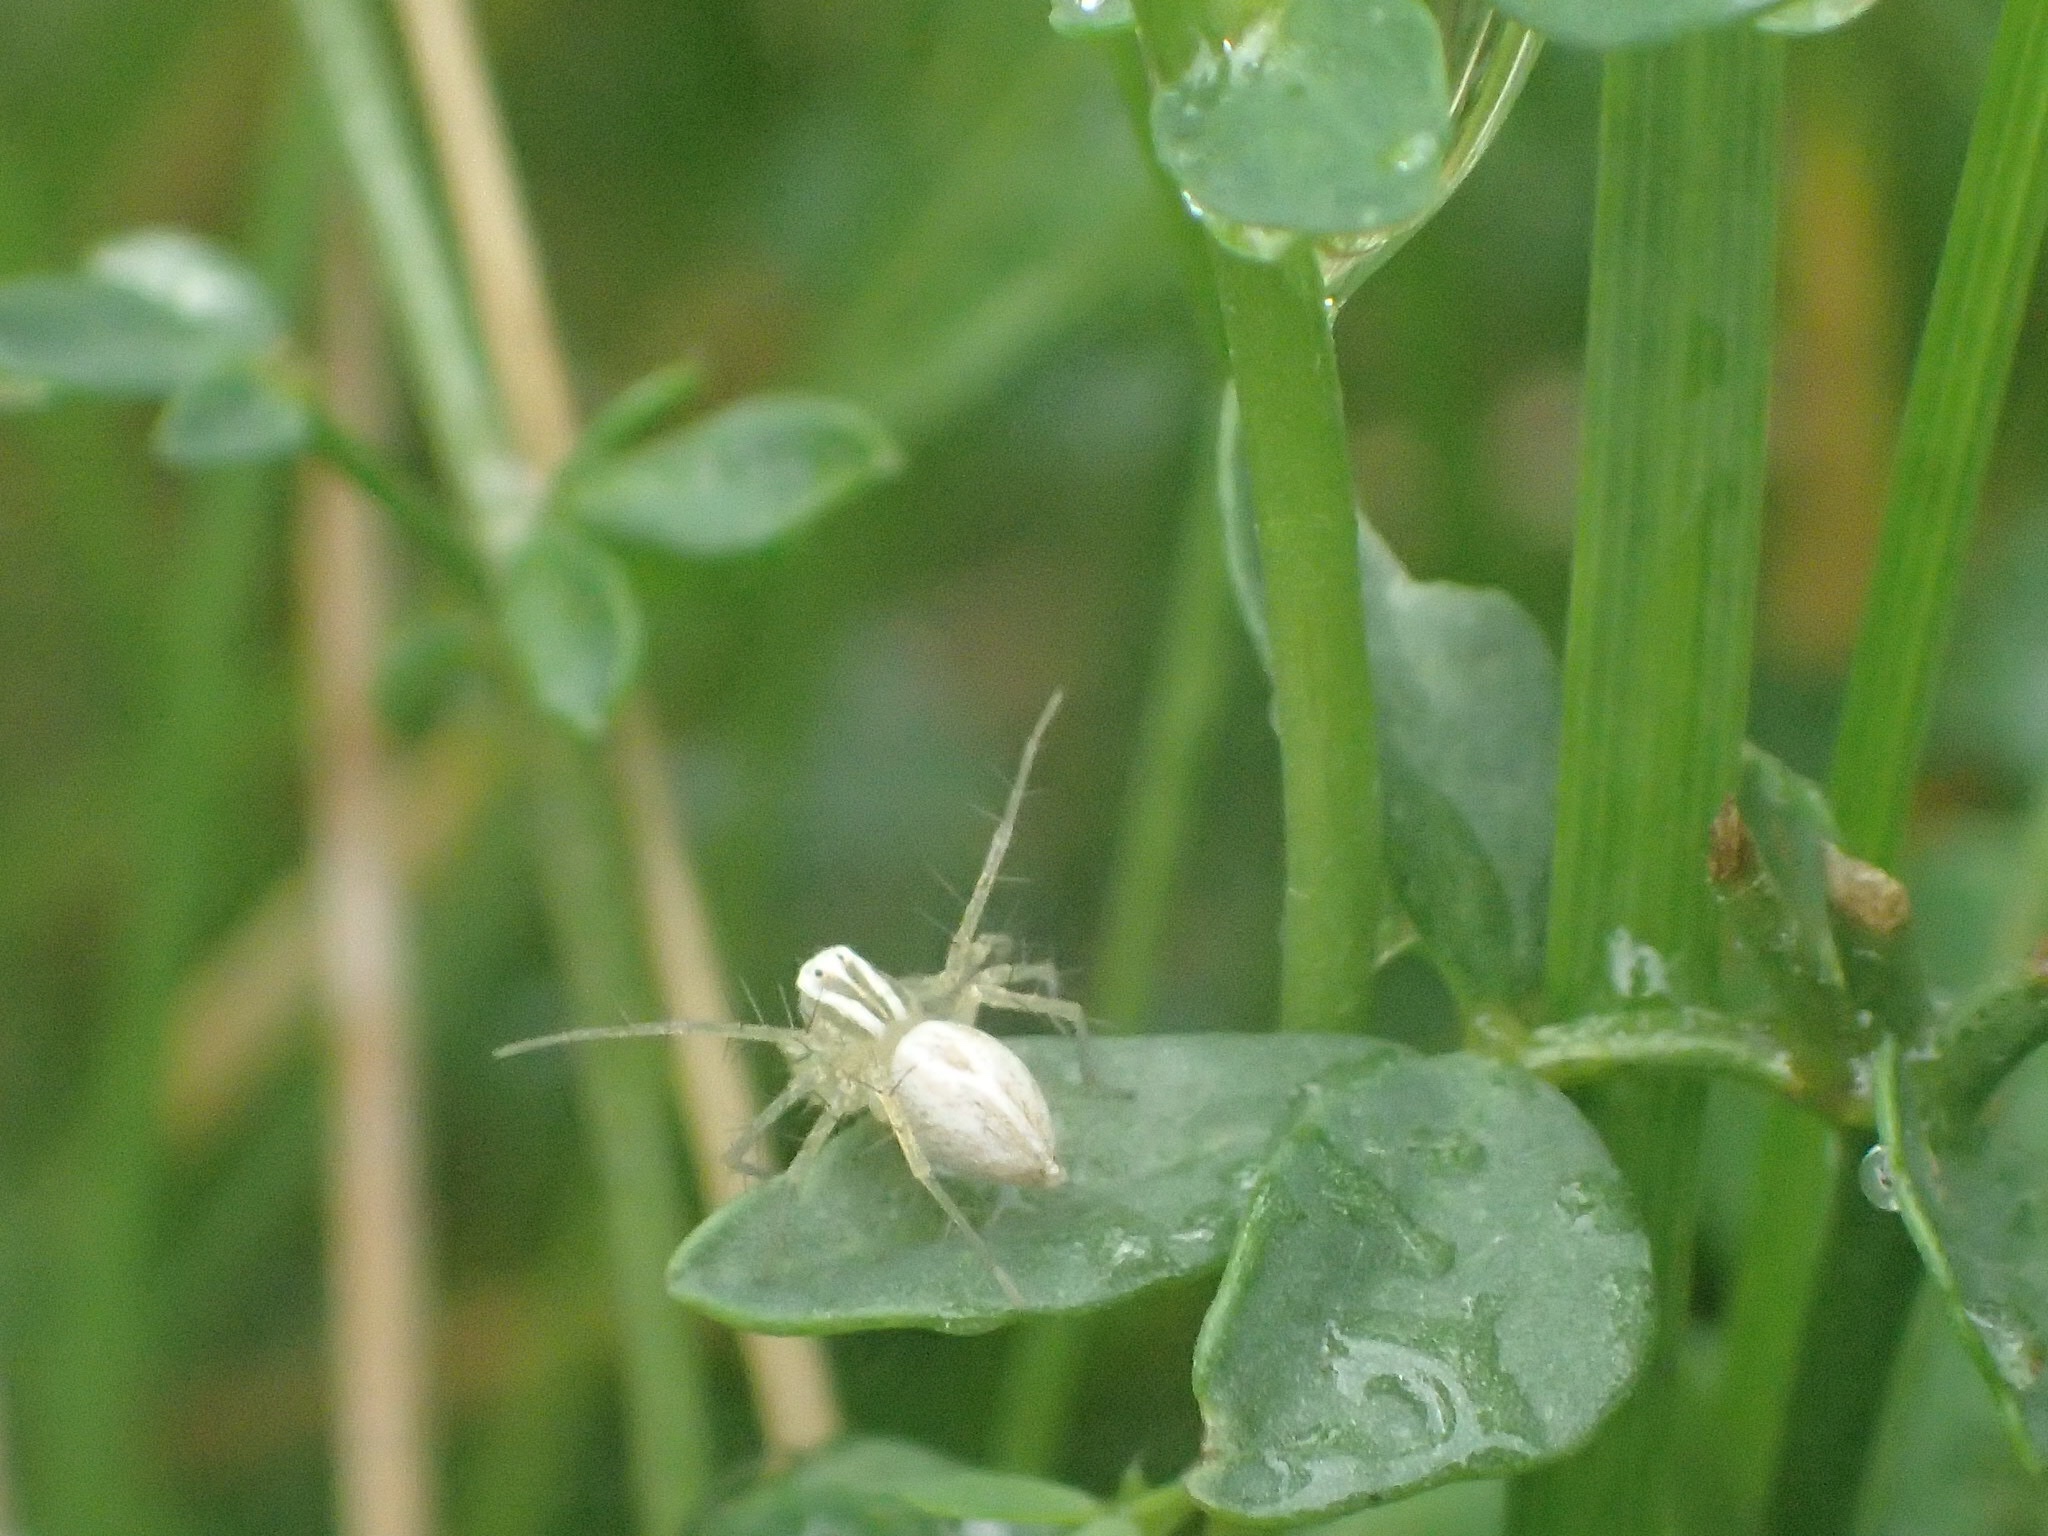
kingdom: Animalia
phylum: Arthropoda
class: Arachnida
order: Araneae
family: Oxyopidae
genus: Oxyopes
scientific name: Oxyopes salticus
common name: Lynx spiders
